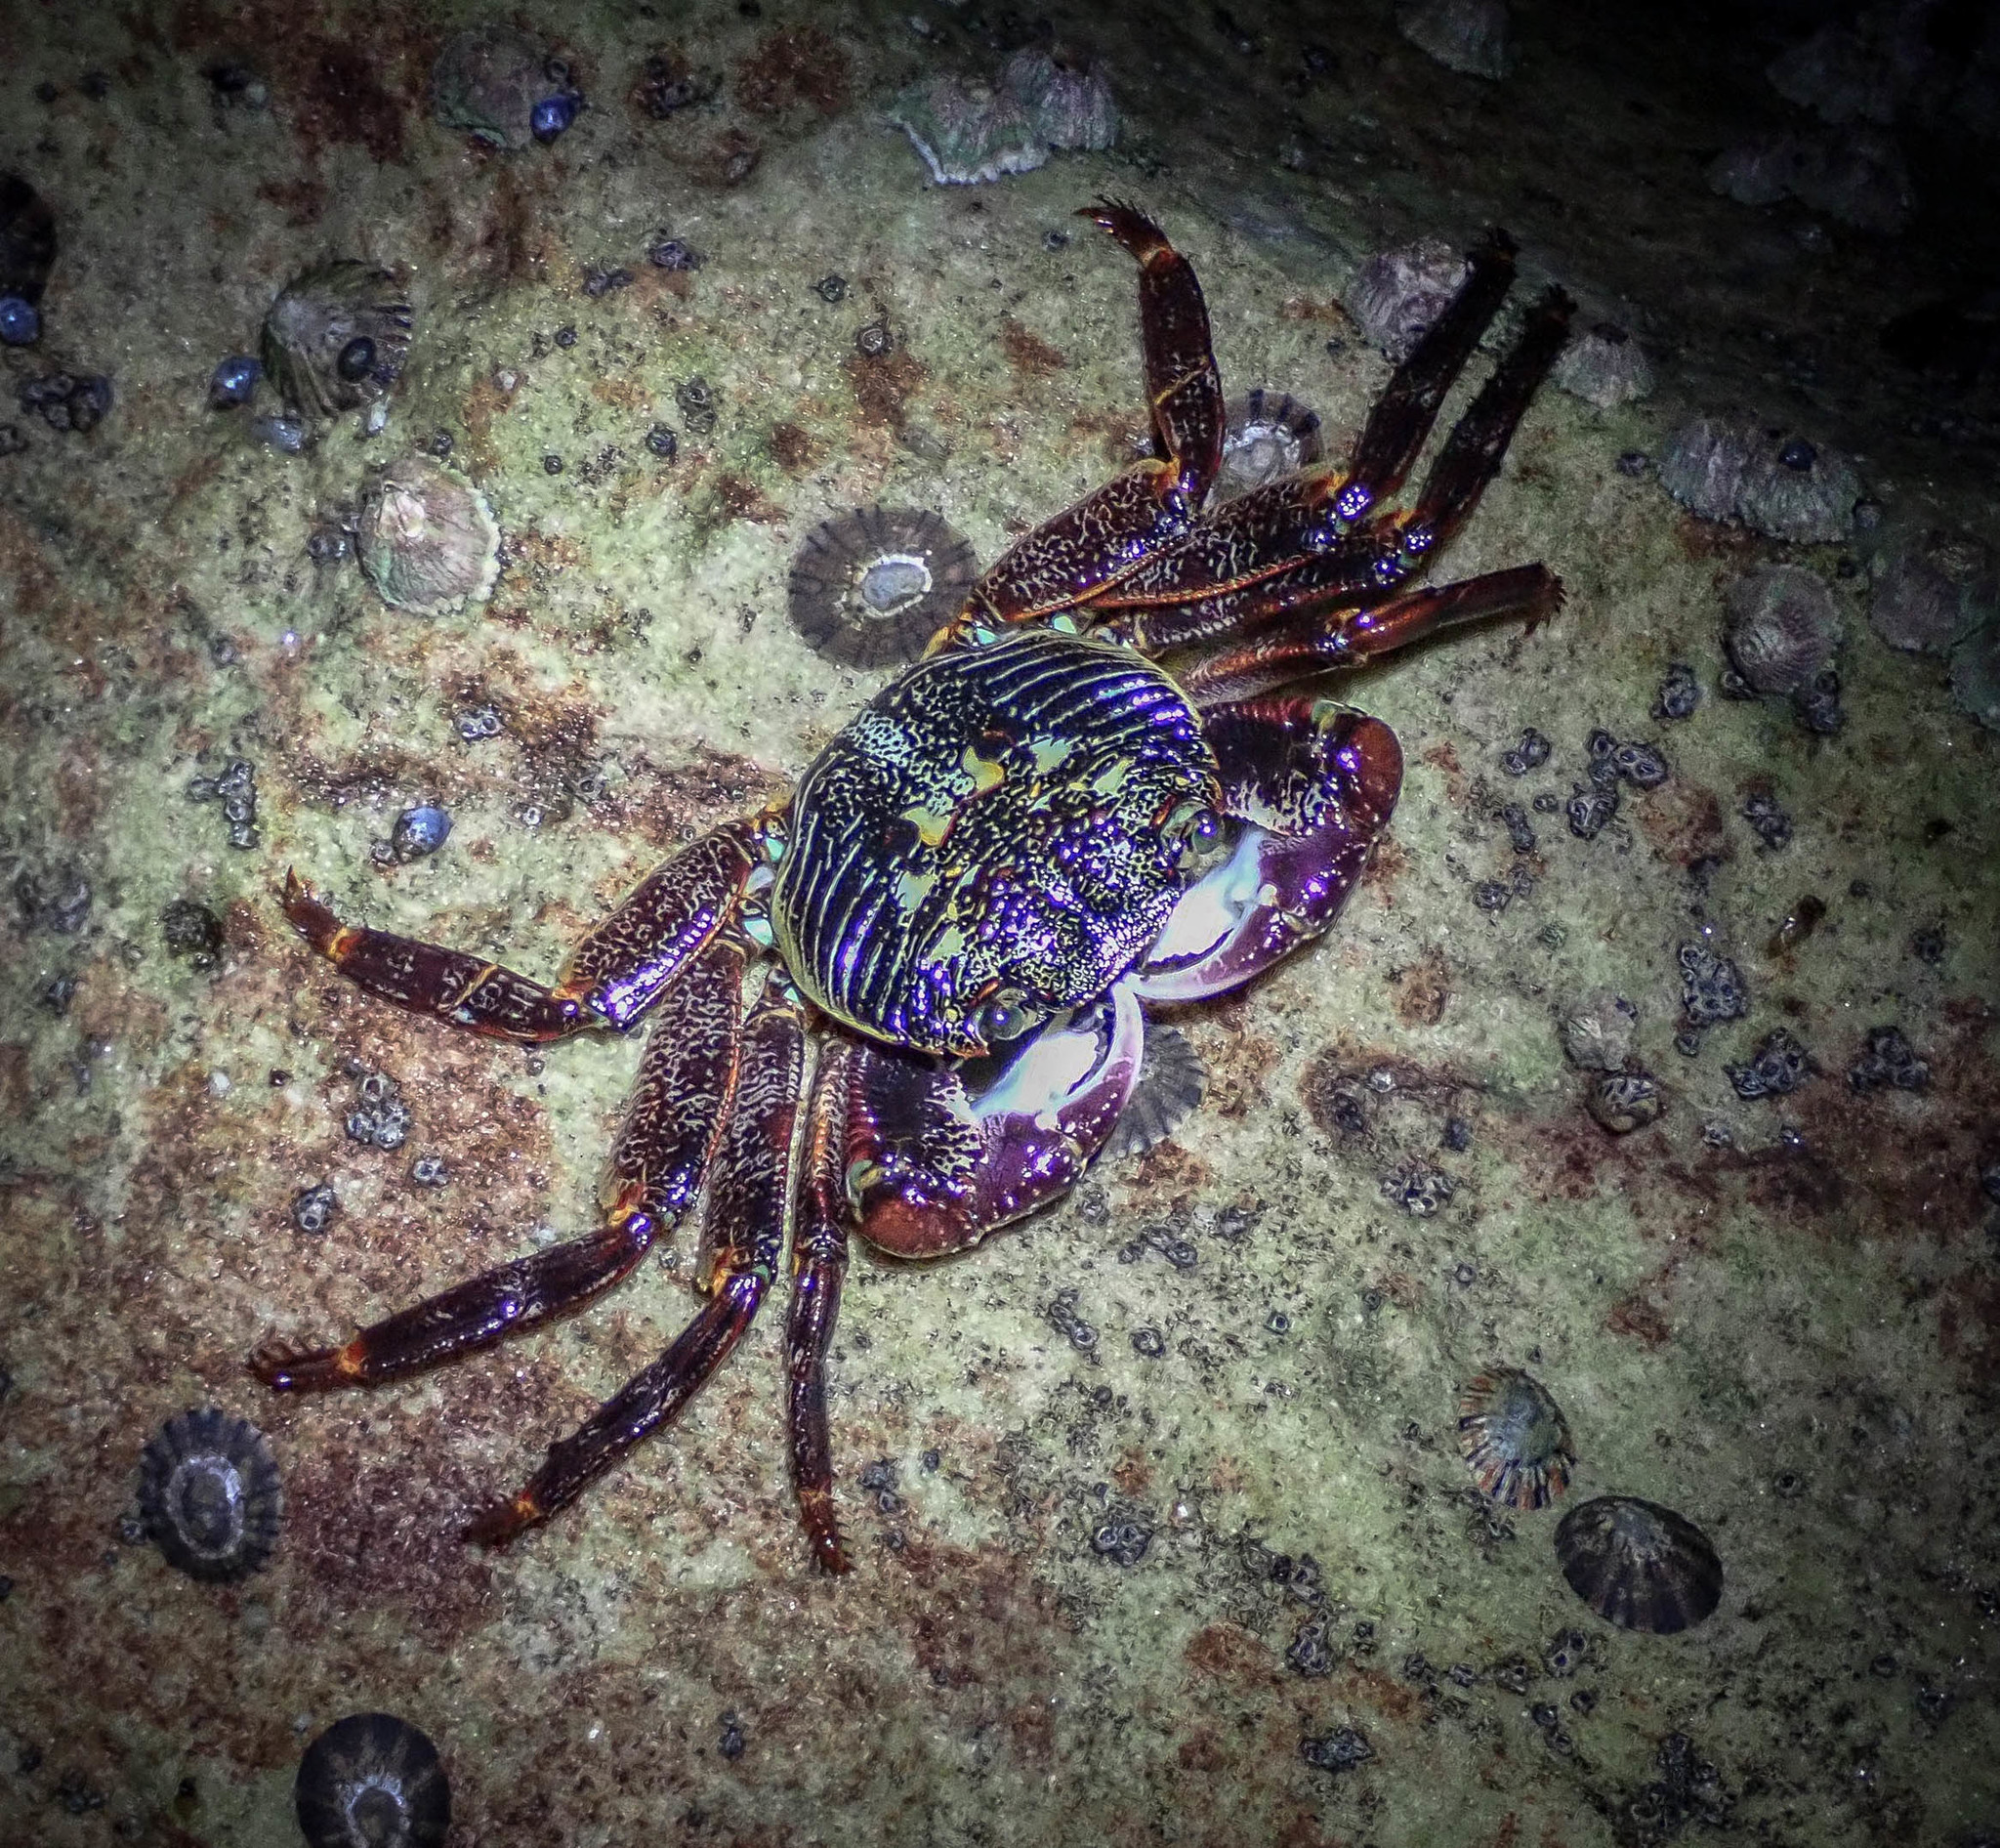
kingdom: Animalia
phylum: Arthropoda
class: Malacostraca
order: Decapoda
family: Grapsidae
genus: Leptograpsus
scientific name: Leptograpsus variegatus
